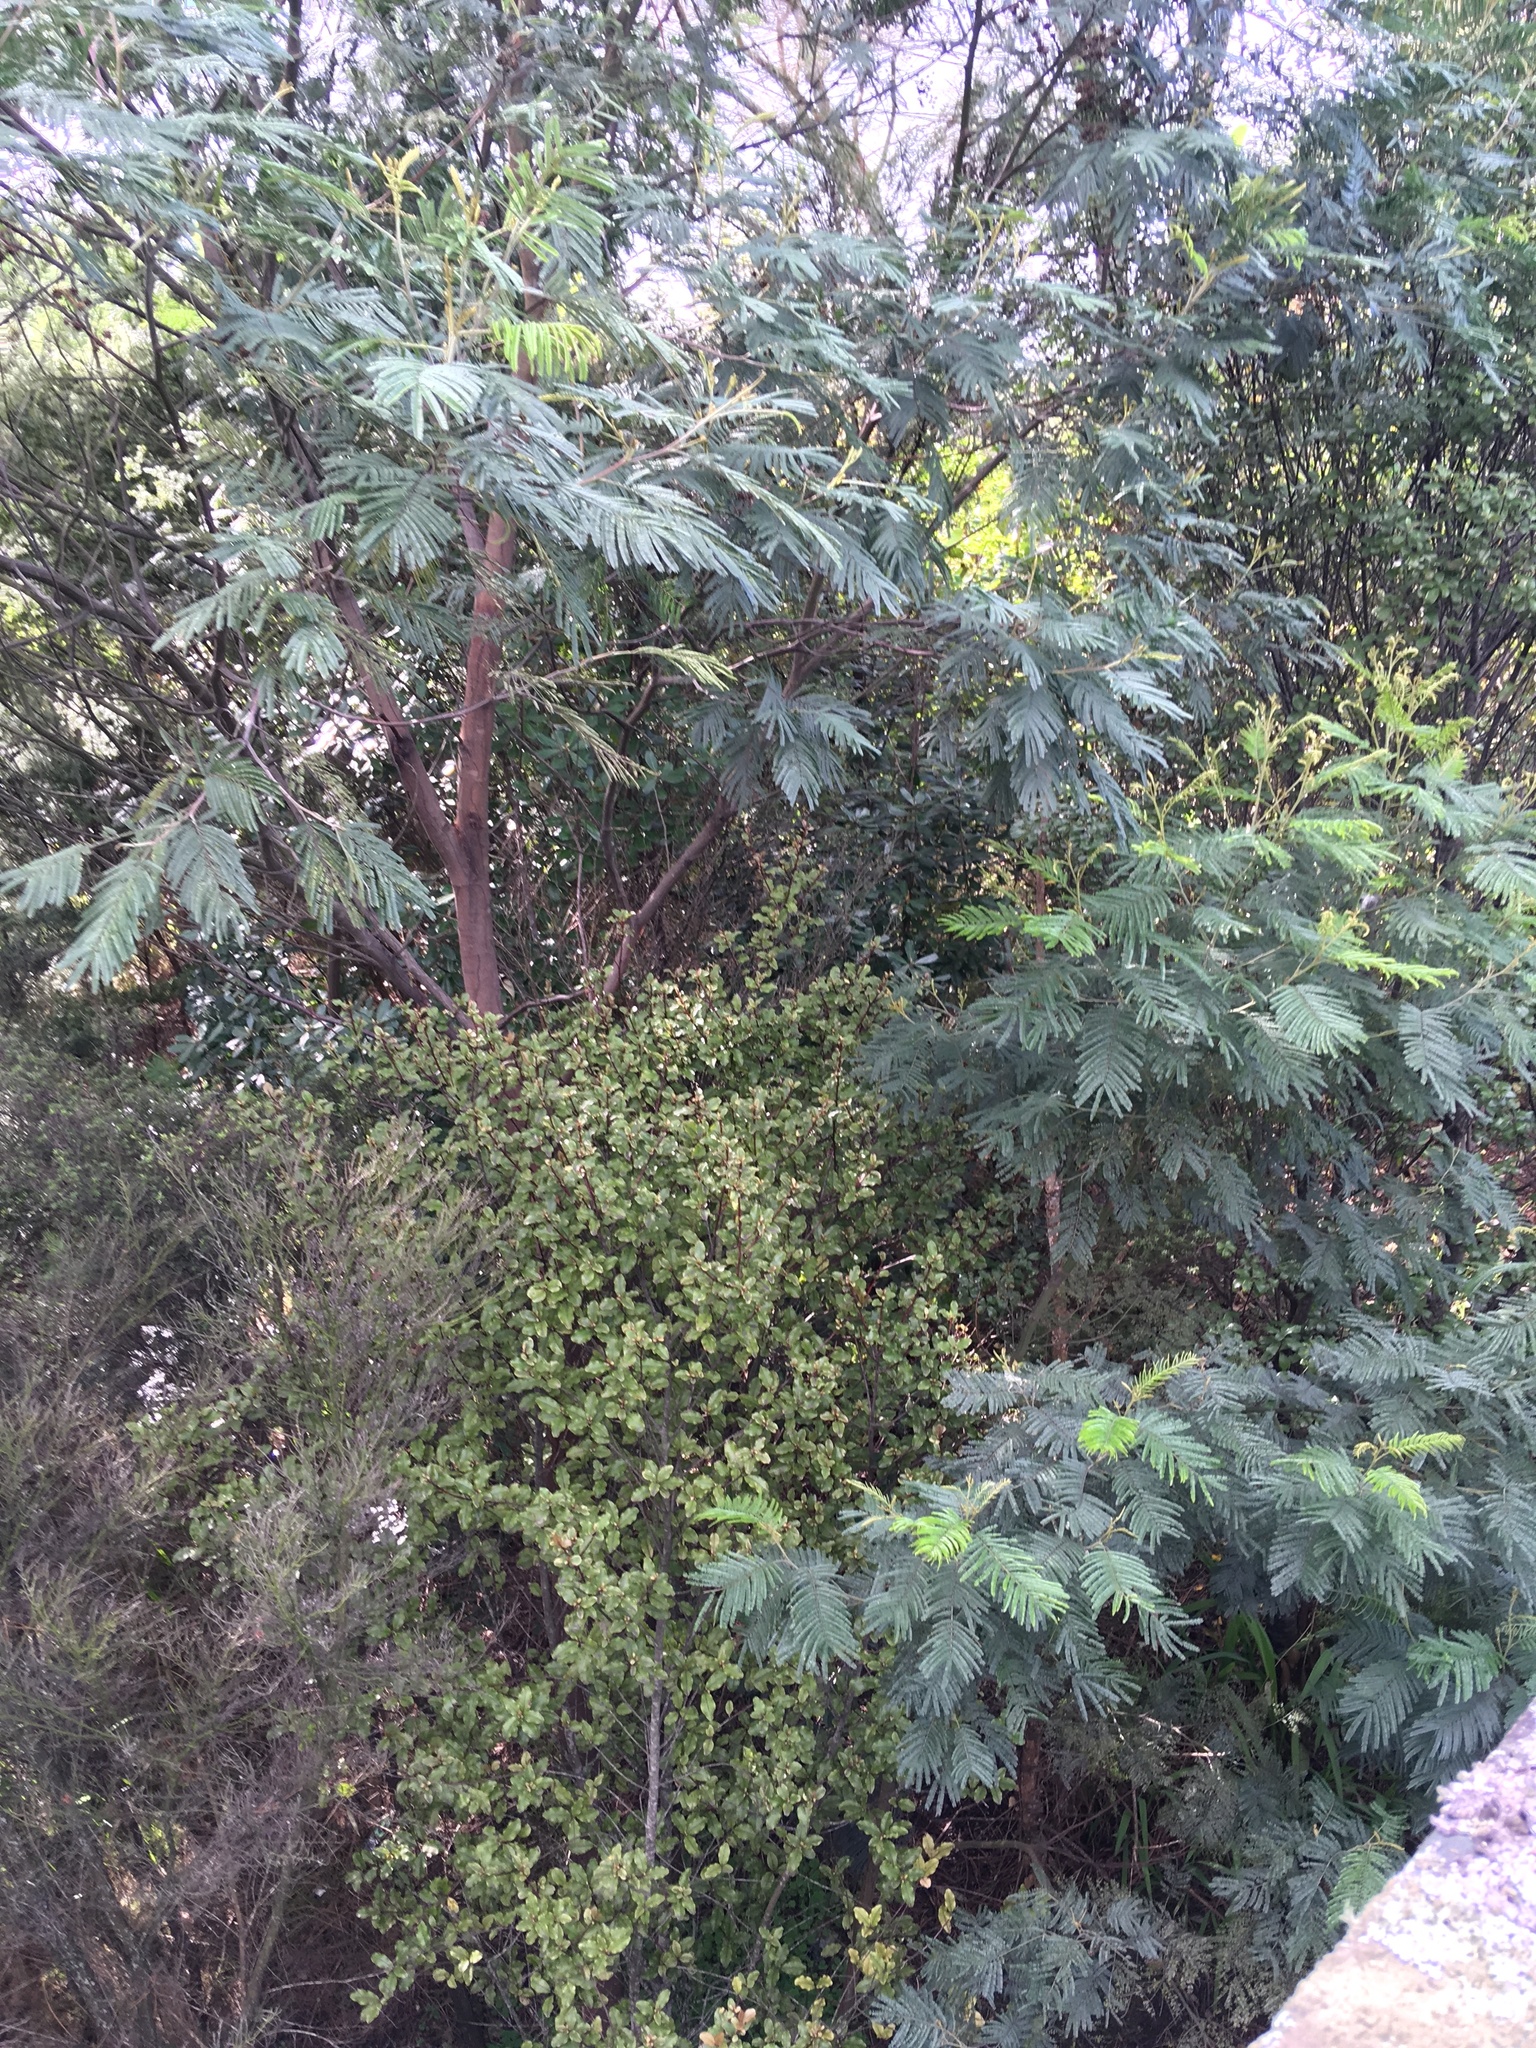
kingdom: Plantae
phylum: Tracheophyta
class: Magnoliopsida
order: Fabales
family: Fabaceae
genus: Paraserianthes
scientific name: Paraserianthes lophantha
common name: Plume albizia
